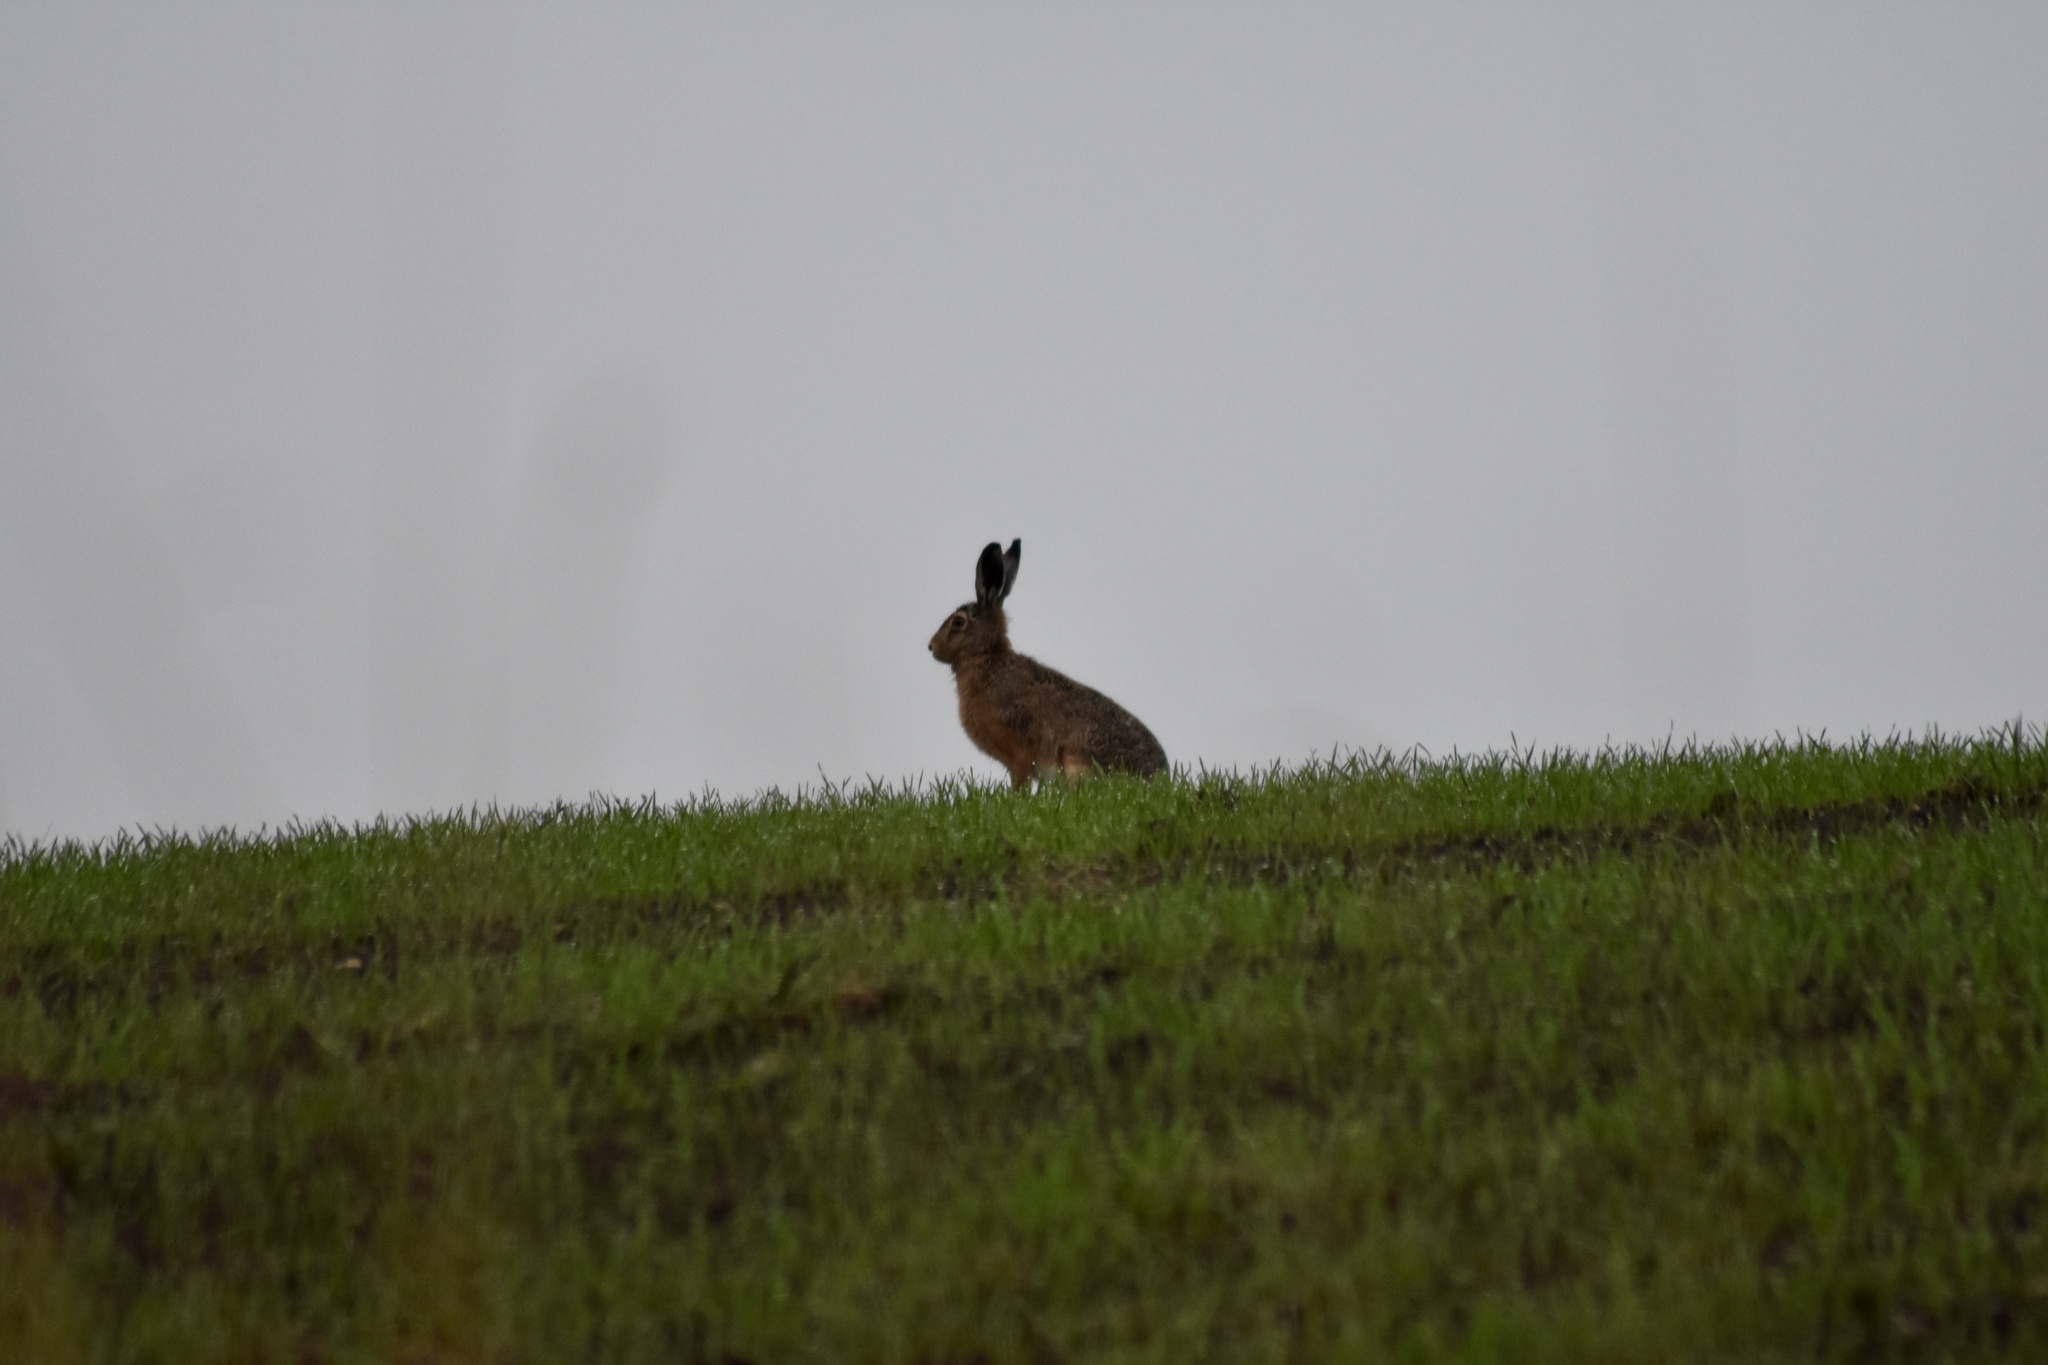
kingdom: Animalia
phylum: Chordata
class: Mammalia
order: Lagomorpha
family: Leporidae
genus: Lepus
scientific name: Lepus europaeus
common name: European hare
